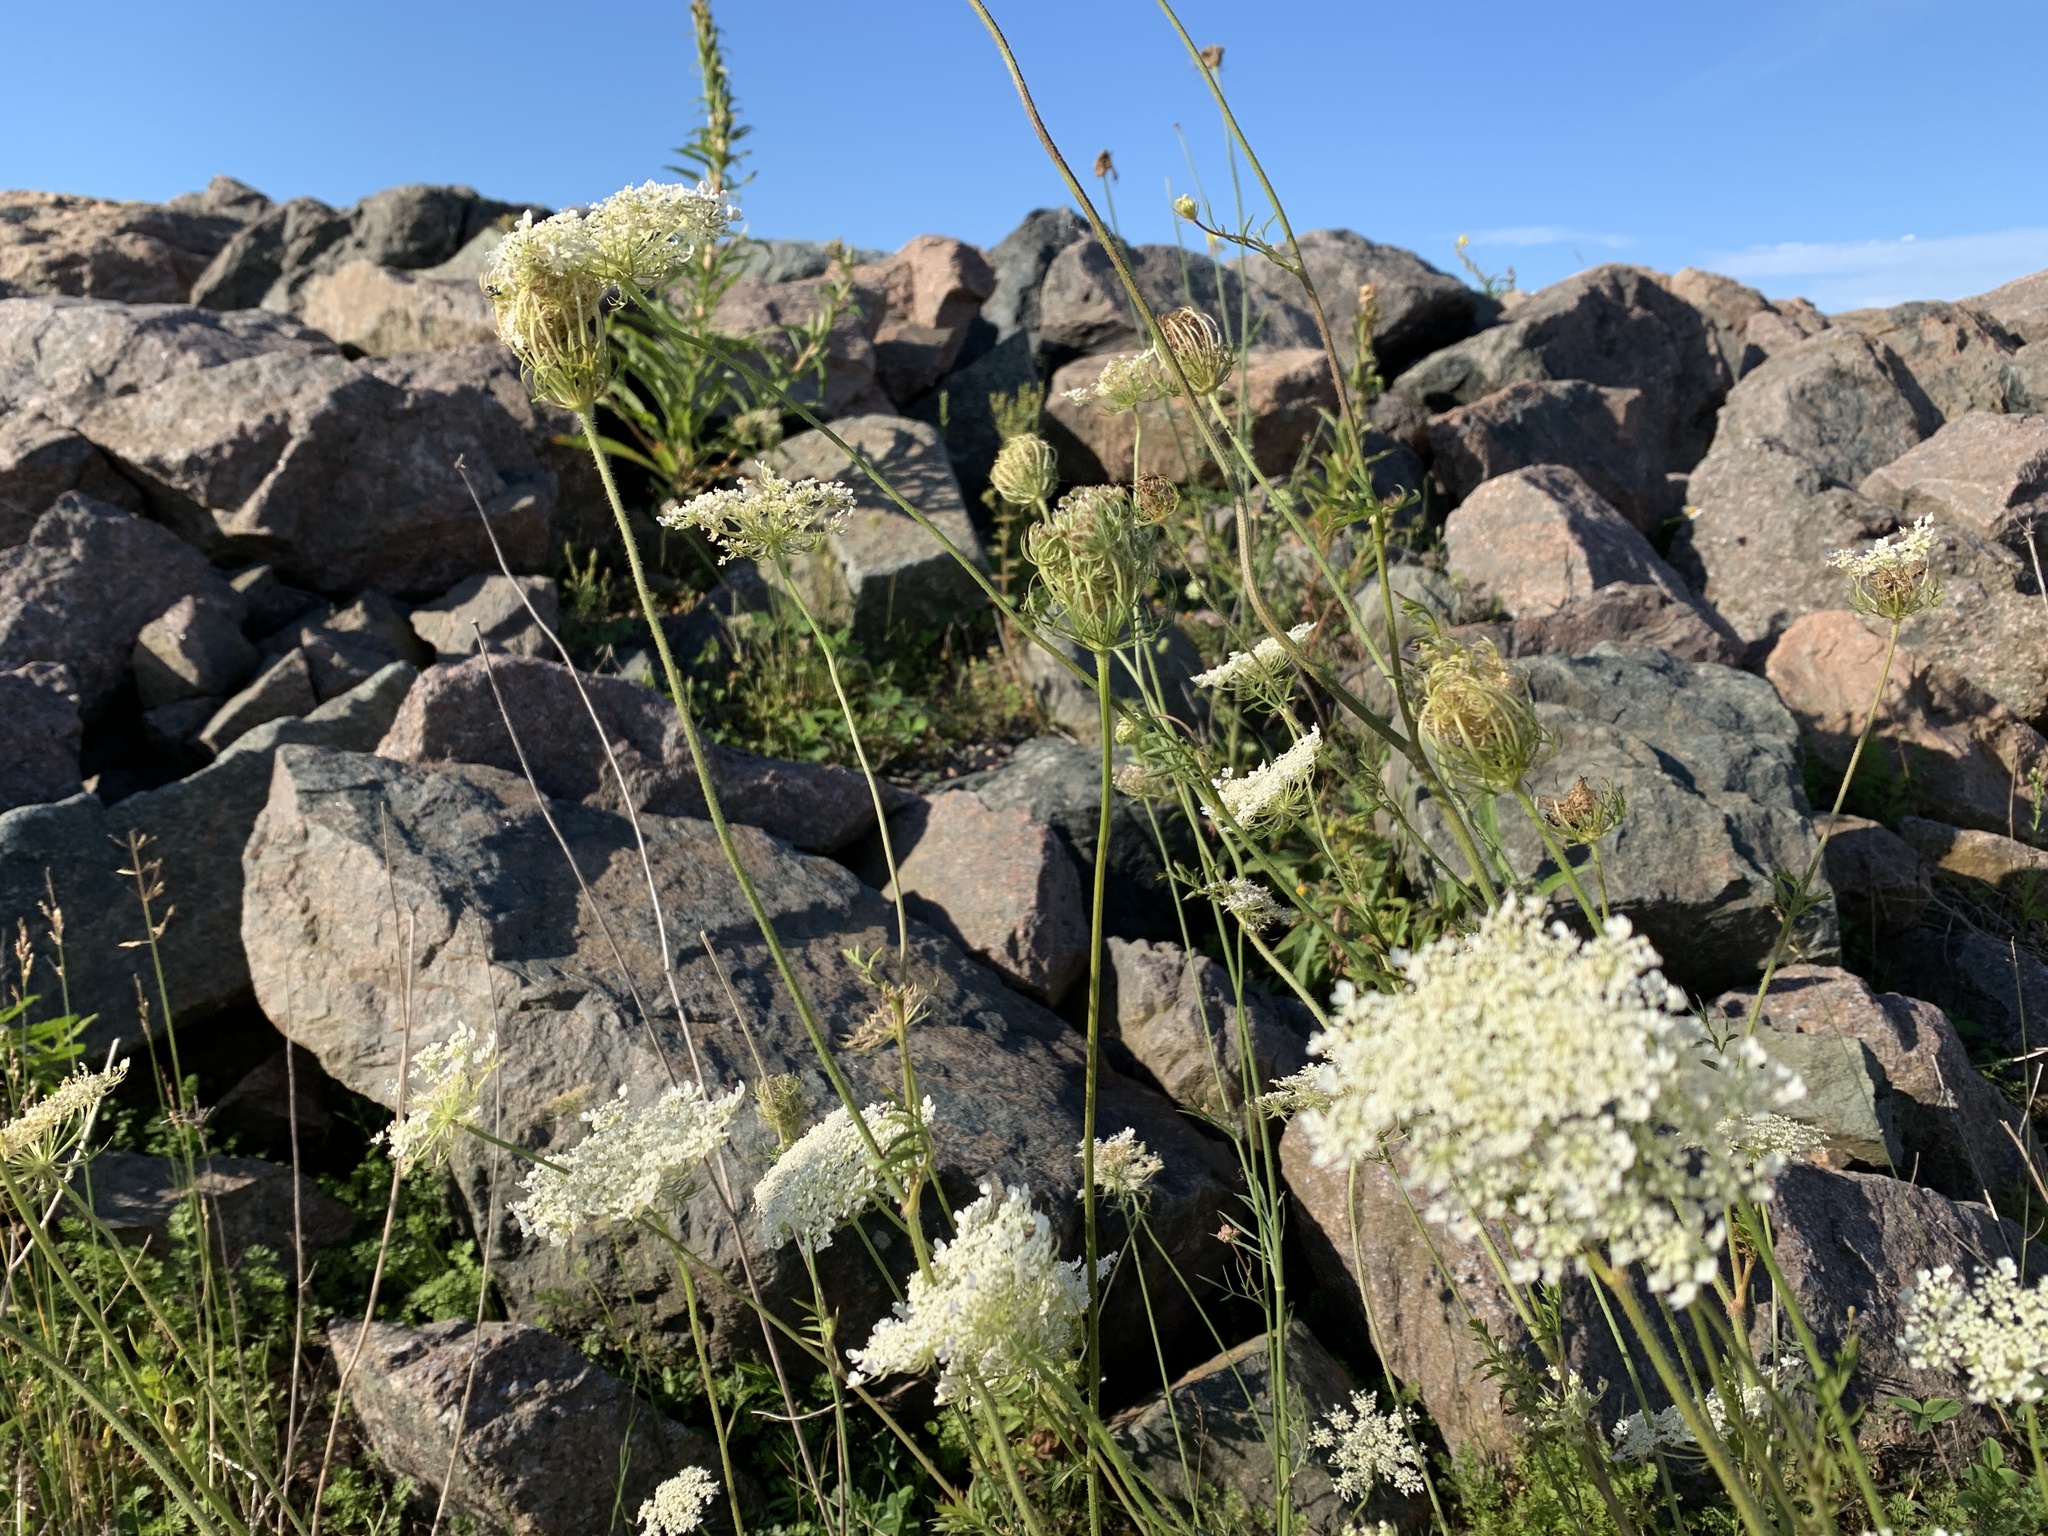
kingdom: Plantae
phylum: Tracheophyta
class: Magnoliopsida
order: Apiales
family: Apiaceae
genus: Daucus
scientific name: Daucus carota
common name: Wild carrot
